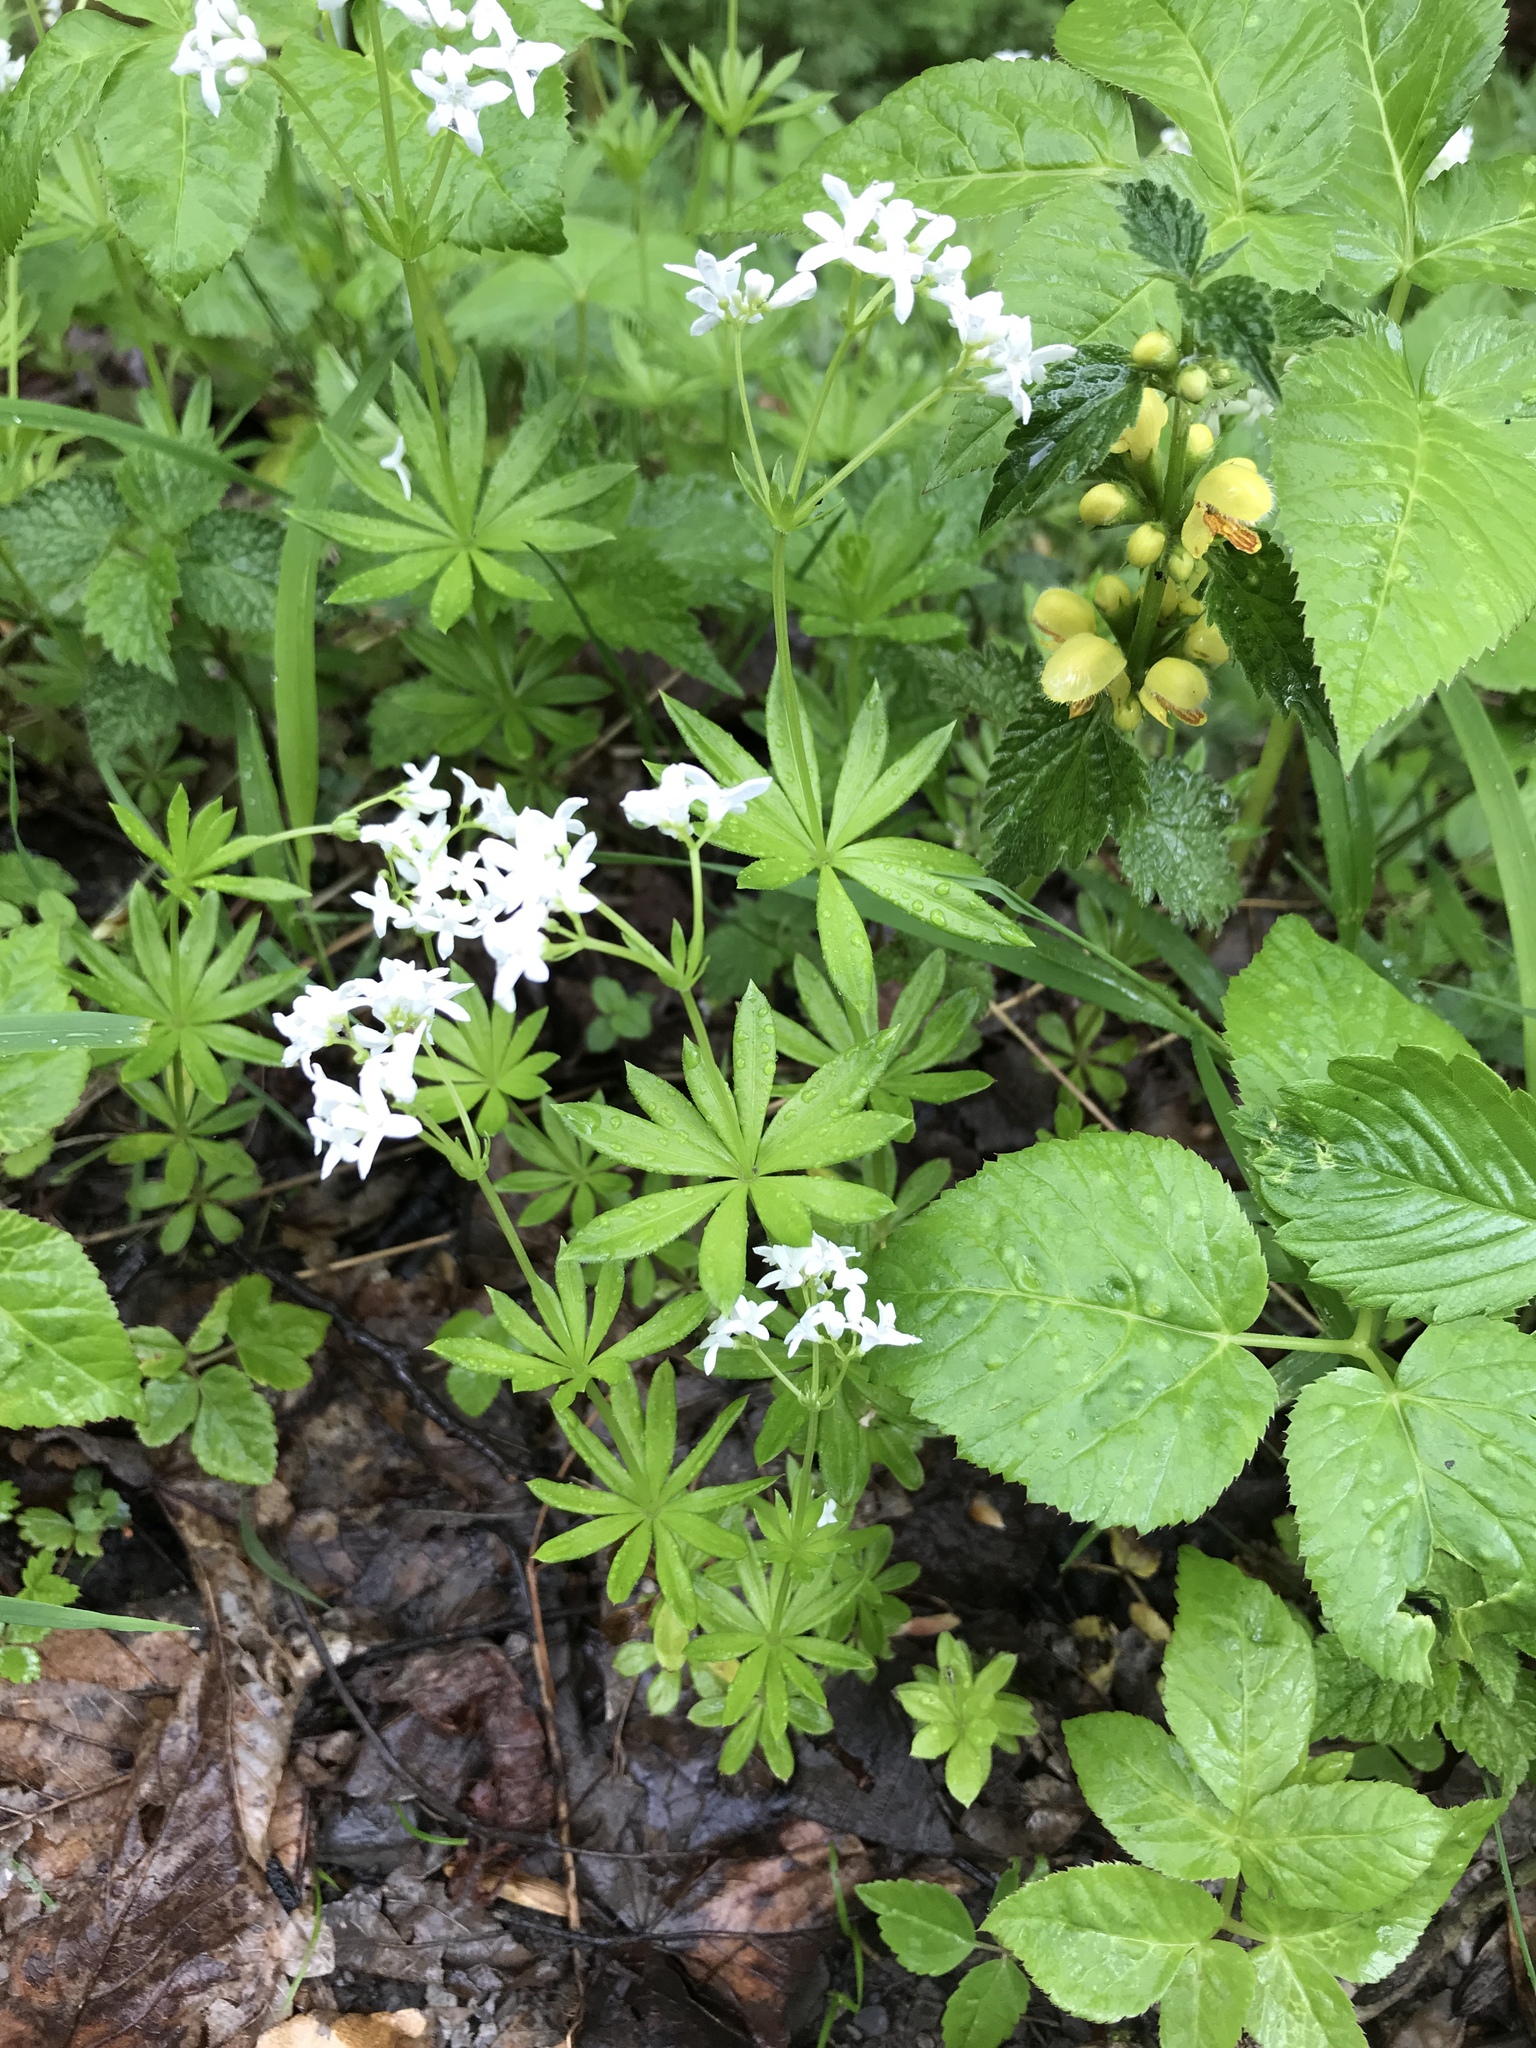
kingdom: Plantae
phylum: Tracheophyta
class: Magnoliopsida
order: Gentianales
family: Rubiaceae
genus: Galium
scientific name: Galium odoratum
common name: Sweet woodruff
